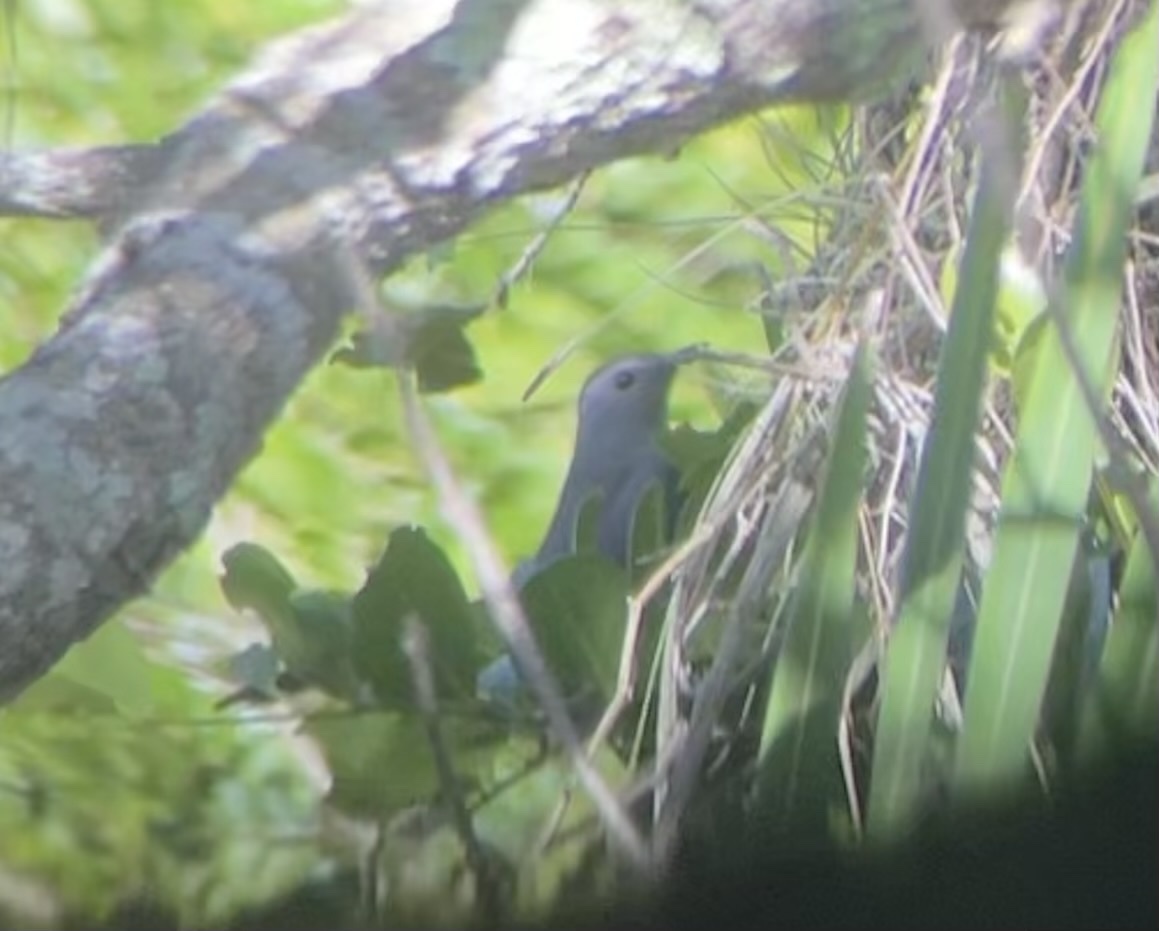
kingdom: Animalia
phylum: Chordata
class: Aves
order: Passeriformes
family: Mimidae
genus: Dumetella
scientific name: Dumetella carolinensis
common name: Gray catbird
